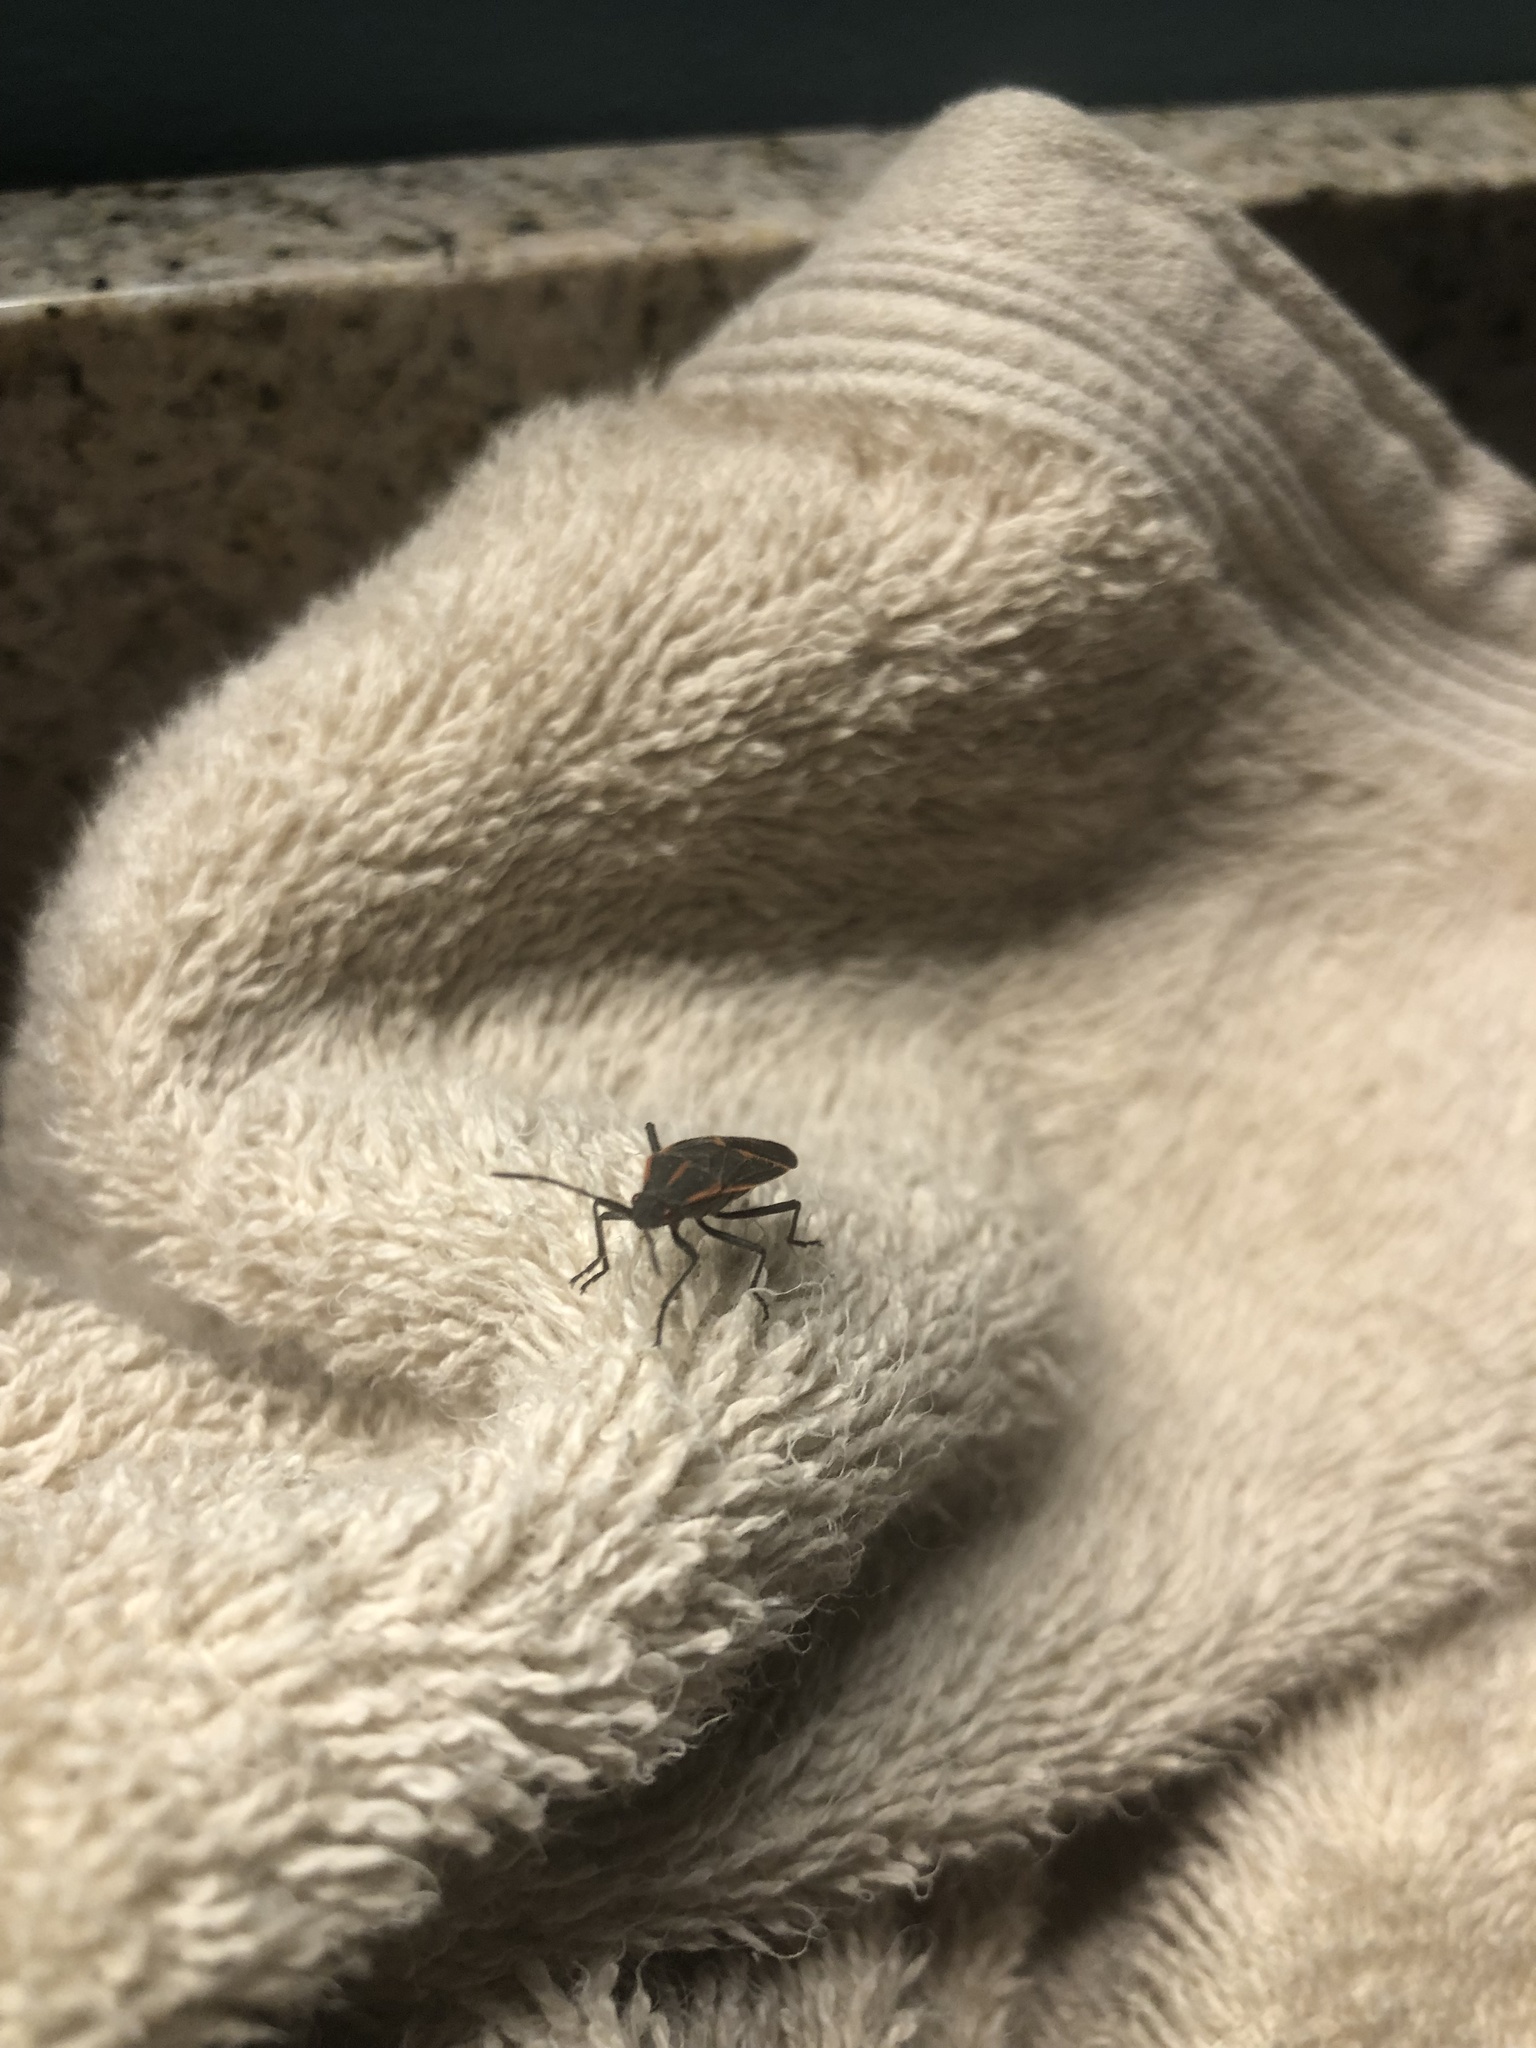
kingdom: Animalia
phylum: Arthropoda
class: Insecta
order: Hemiptera
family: Rhopalidae
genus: Boisea
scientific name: Boisea trivittata
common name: Boxelder bug
